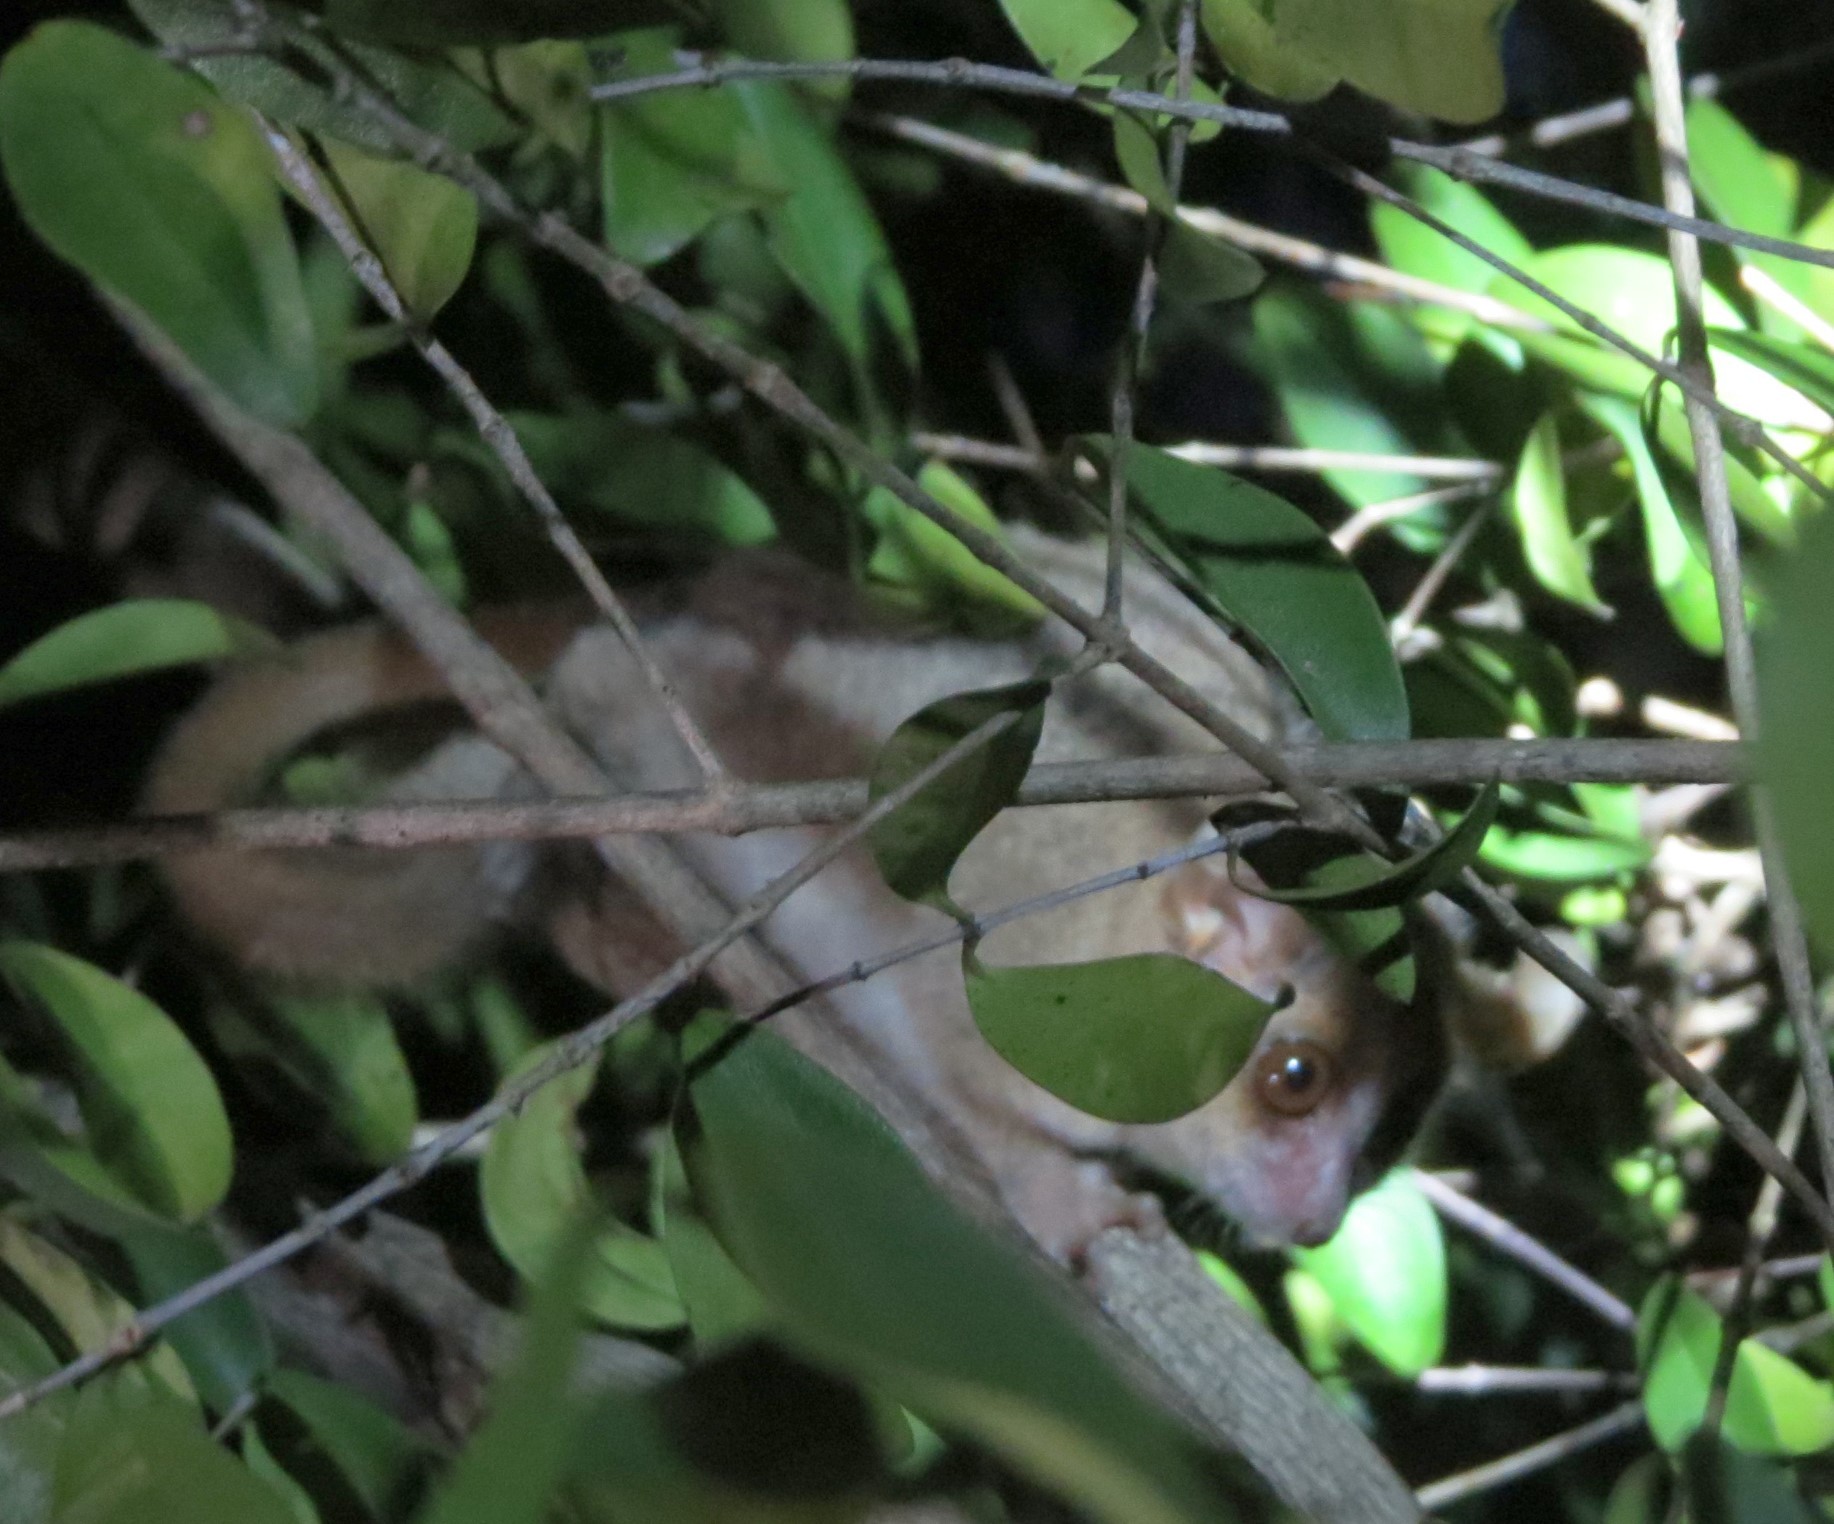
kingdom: Animalia
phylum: Chordata
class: Mammalia
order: Primates
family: Cheirogaleidae
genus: Microcebus
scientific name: Microcebus murinus
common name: Gray mouse lemur
